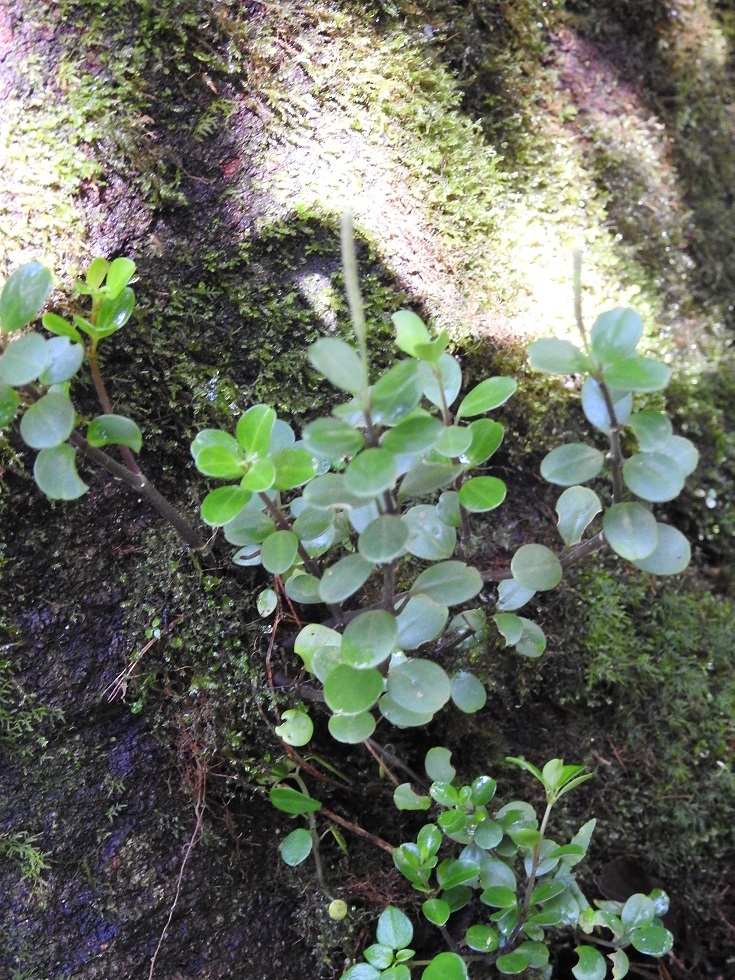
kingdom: Plantae
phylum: Tracheophyta
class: Magnoliopsida
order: Piperales
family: Piperaceae
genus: Peperomia
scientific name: Peperomia lindeniana
